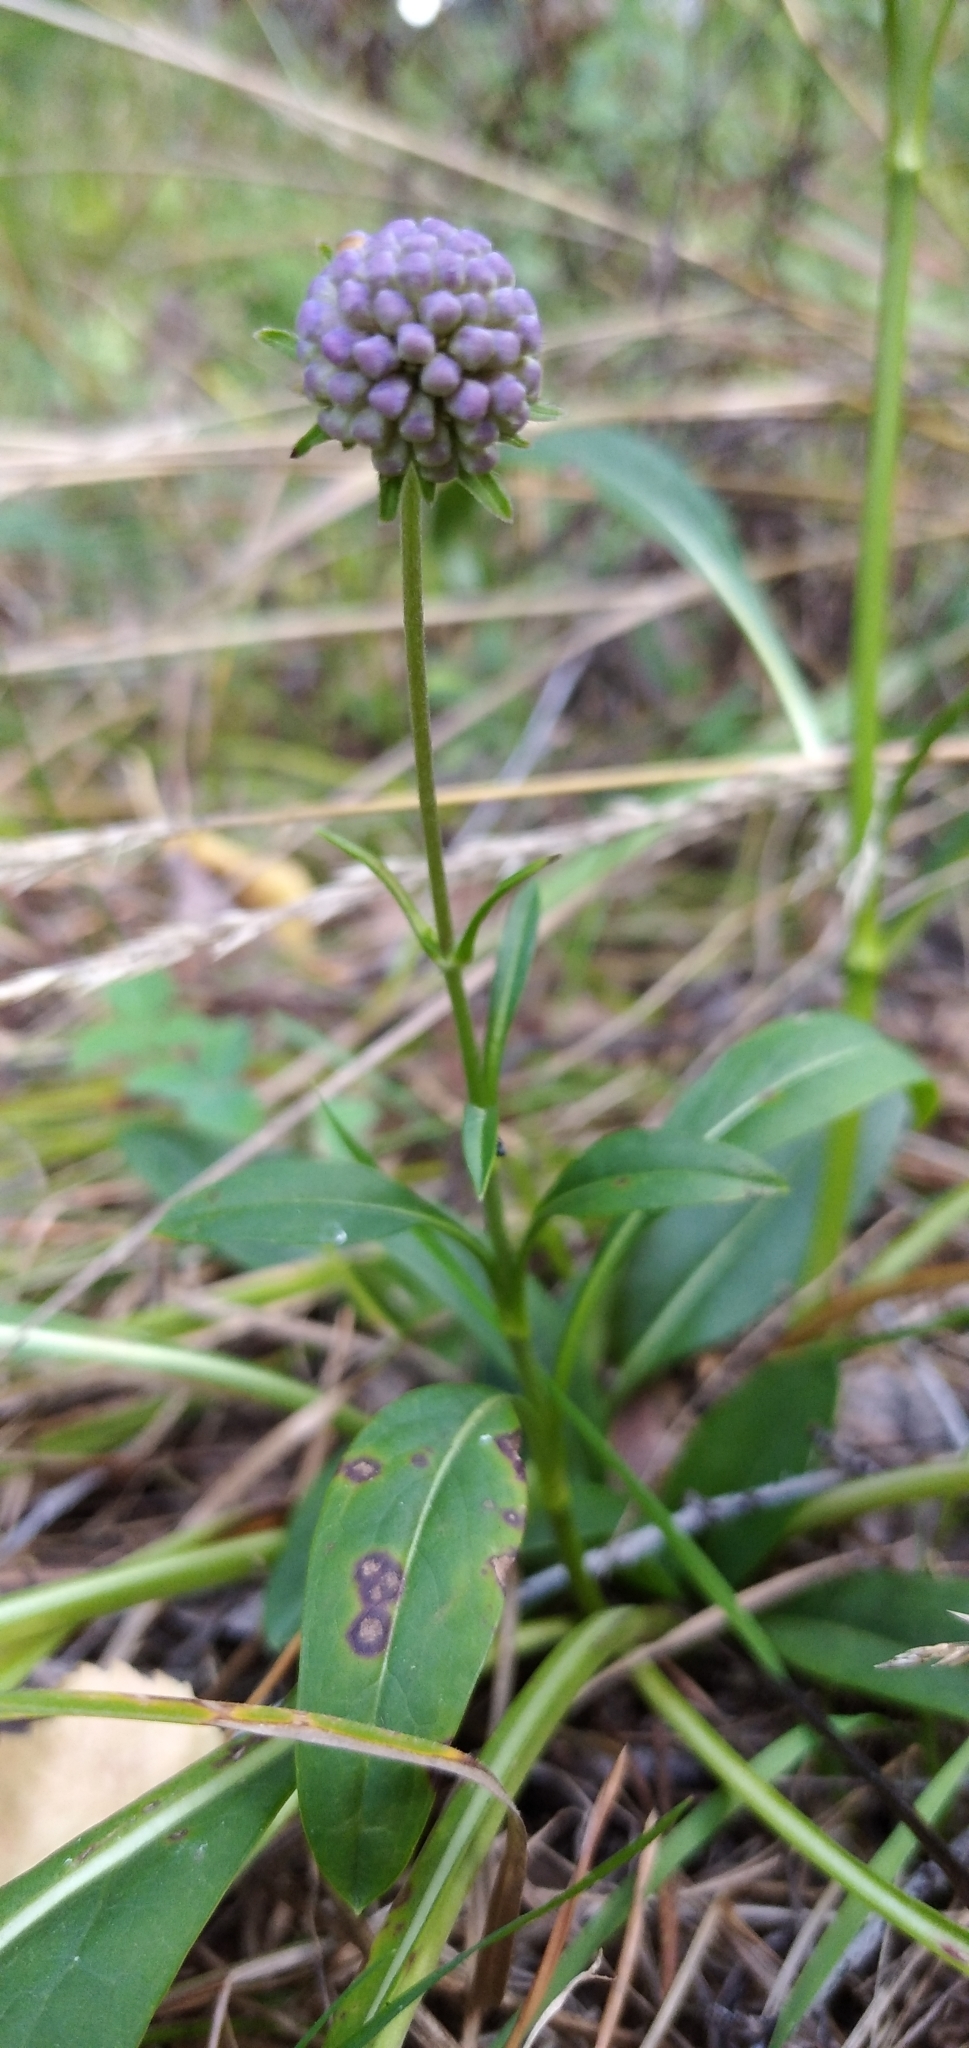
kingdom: Plantae
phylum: Tracheophyta
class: Magnoliopsida
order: Dipsacales
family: Caprifoliaceae
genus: Succisa
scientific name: Succisa pratensis
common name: Devil's-bit
